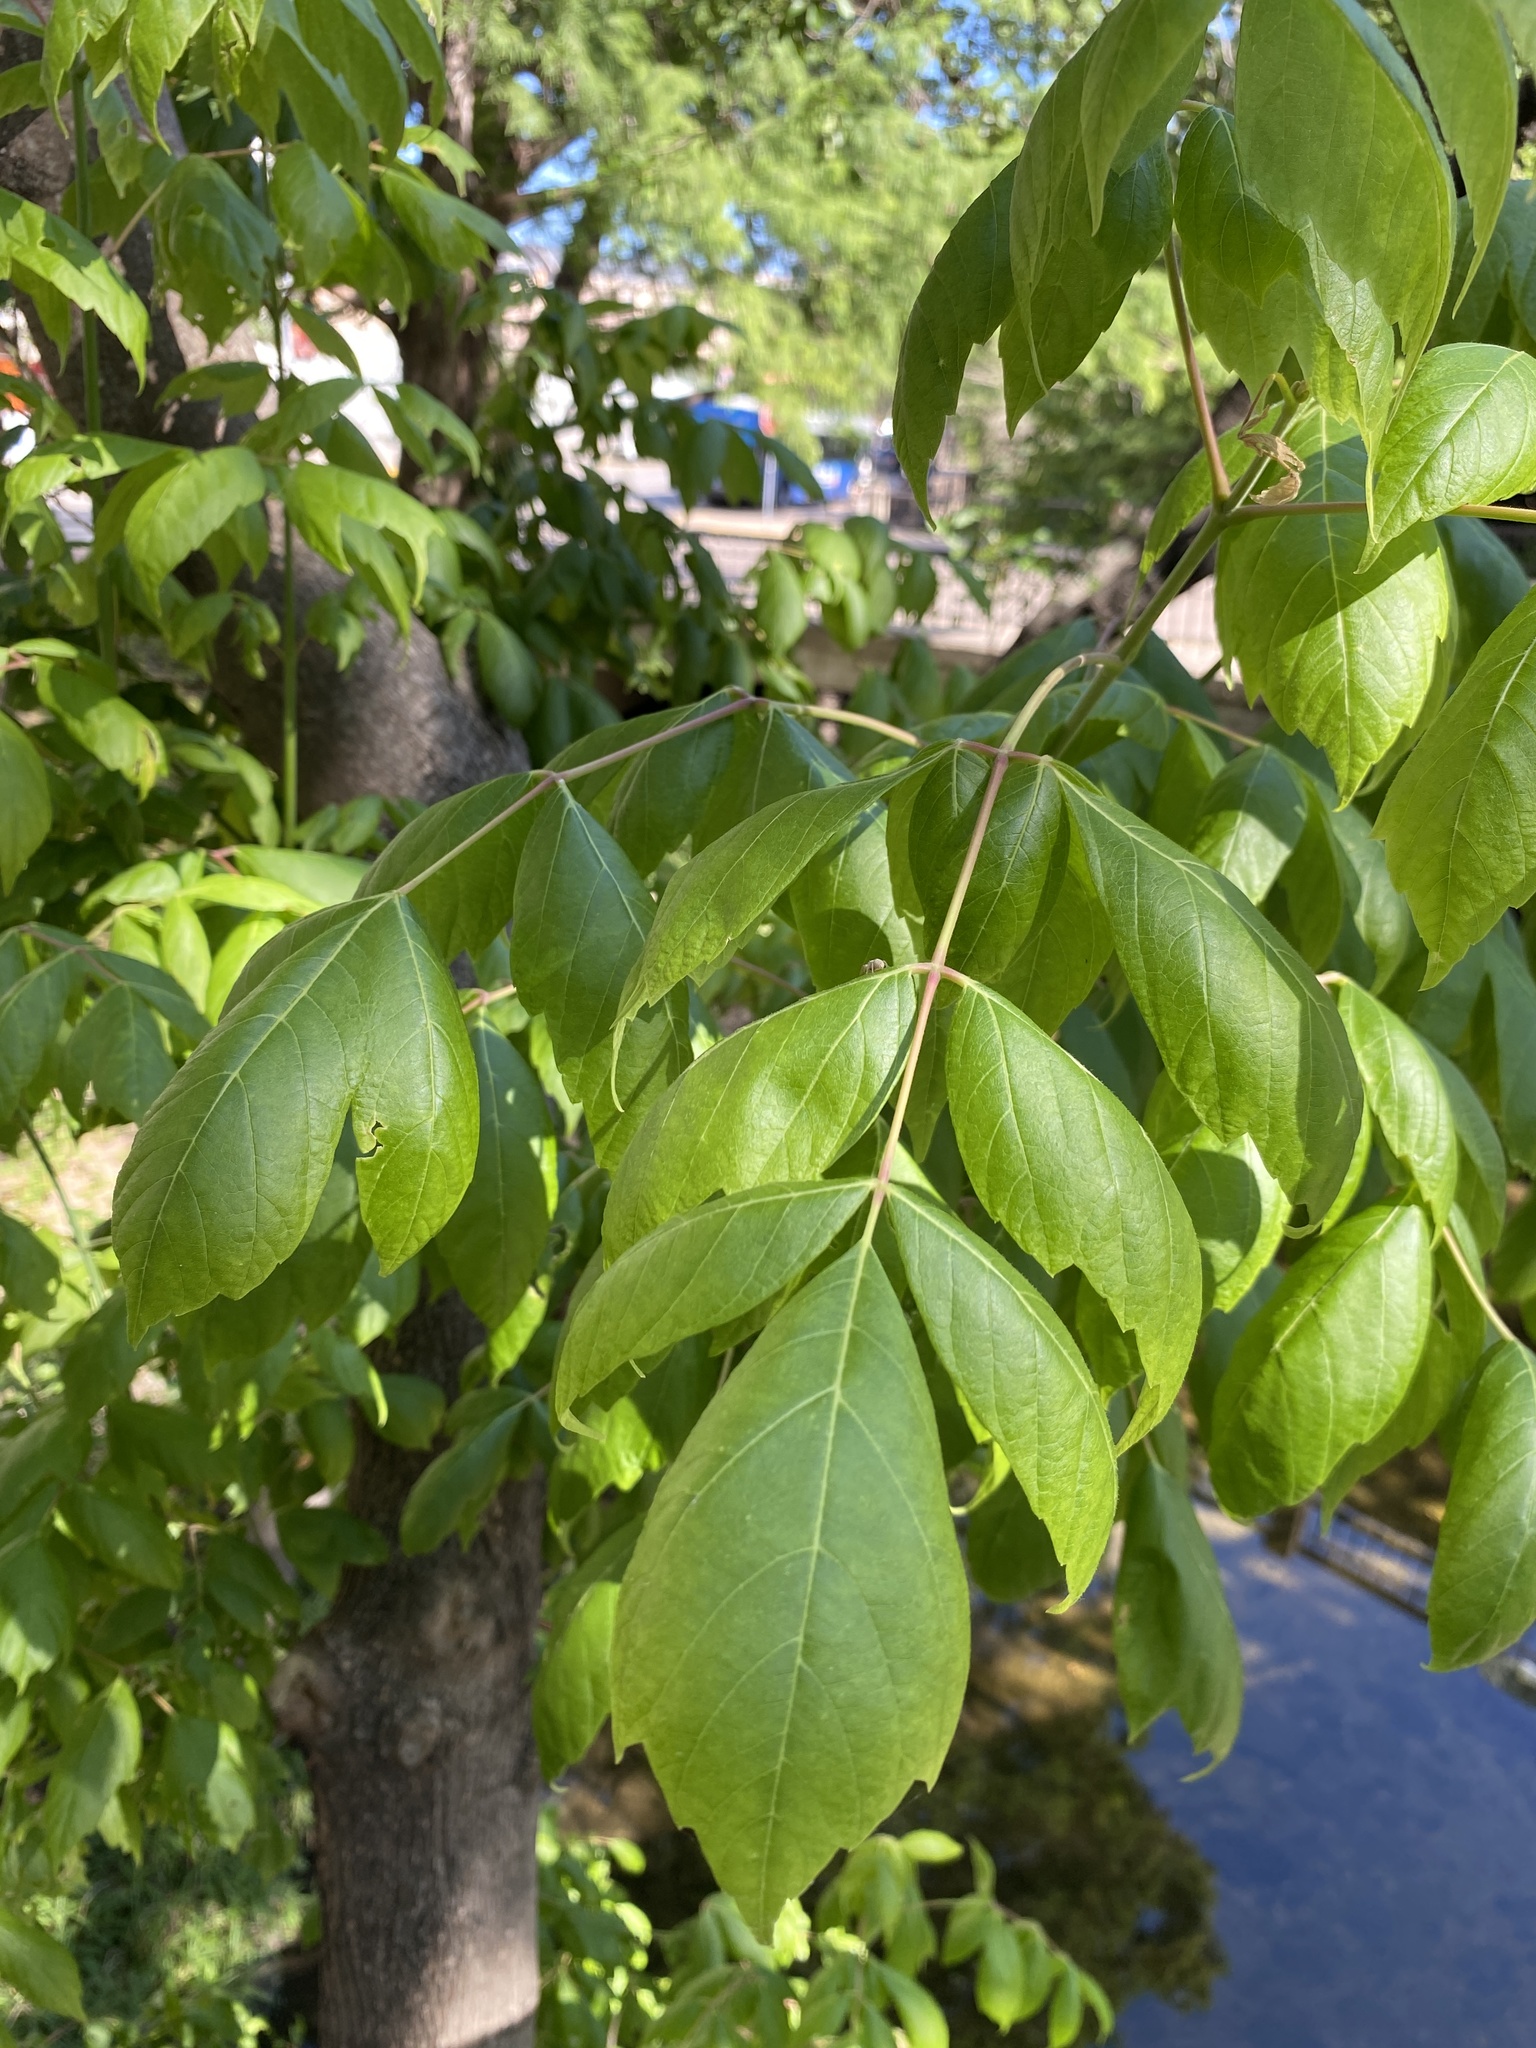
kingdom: Plantae
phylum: Tracheophyta
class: Magnoliopsida
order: Sapindales
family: Sapindaceae
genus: Acer
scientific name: Acer negundo
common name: Ashleaf maple
